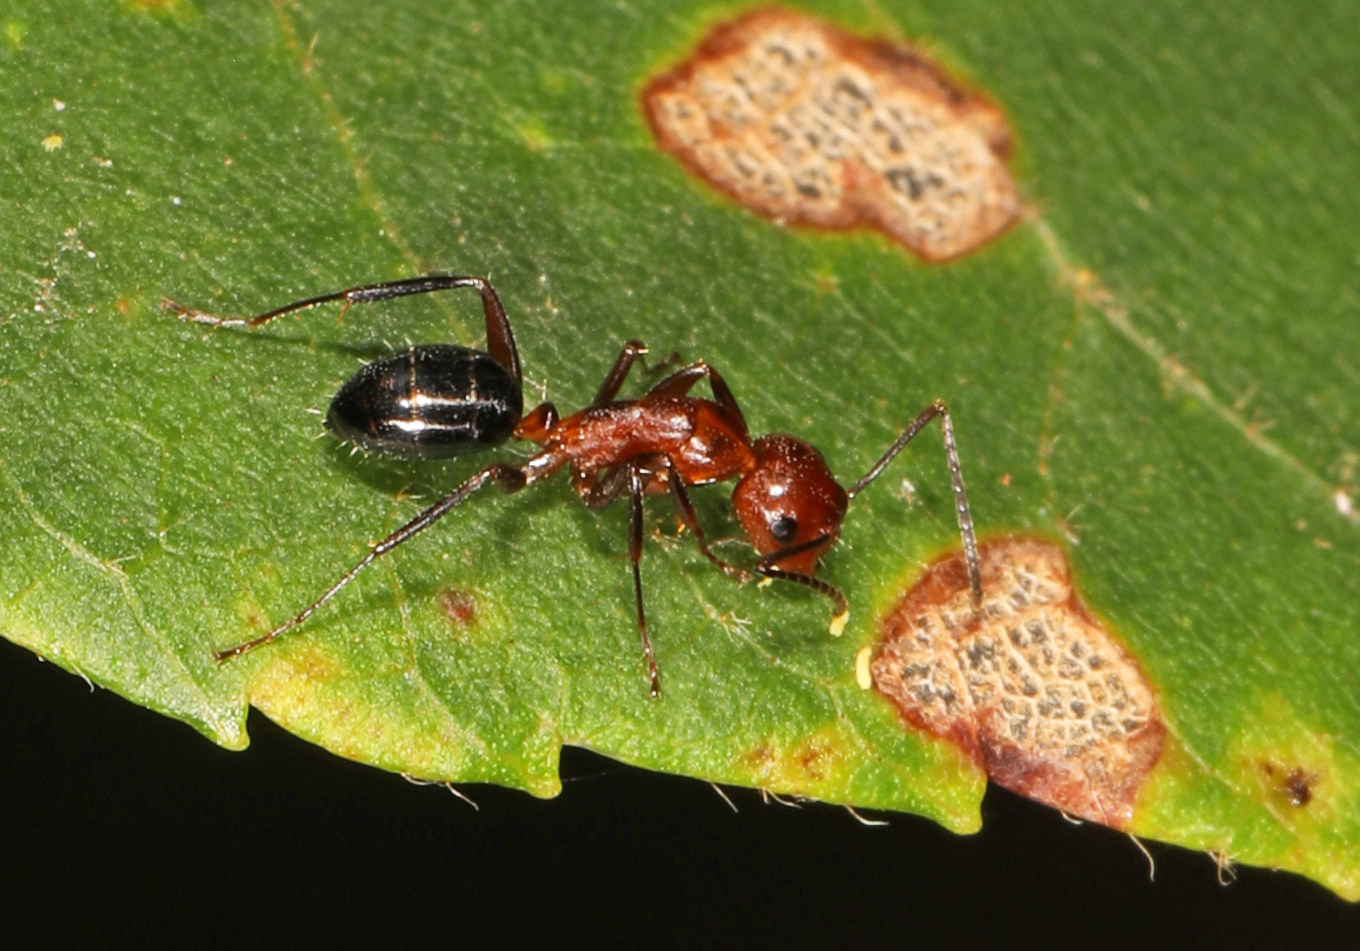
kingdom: Animalia
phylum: Arthropoda
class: Insecta
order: Hymenoptera
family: Formicidae
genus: Camponotus
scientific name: Camponotus decipiens
